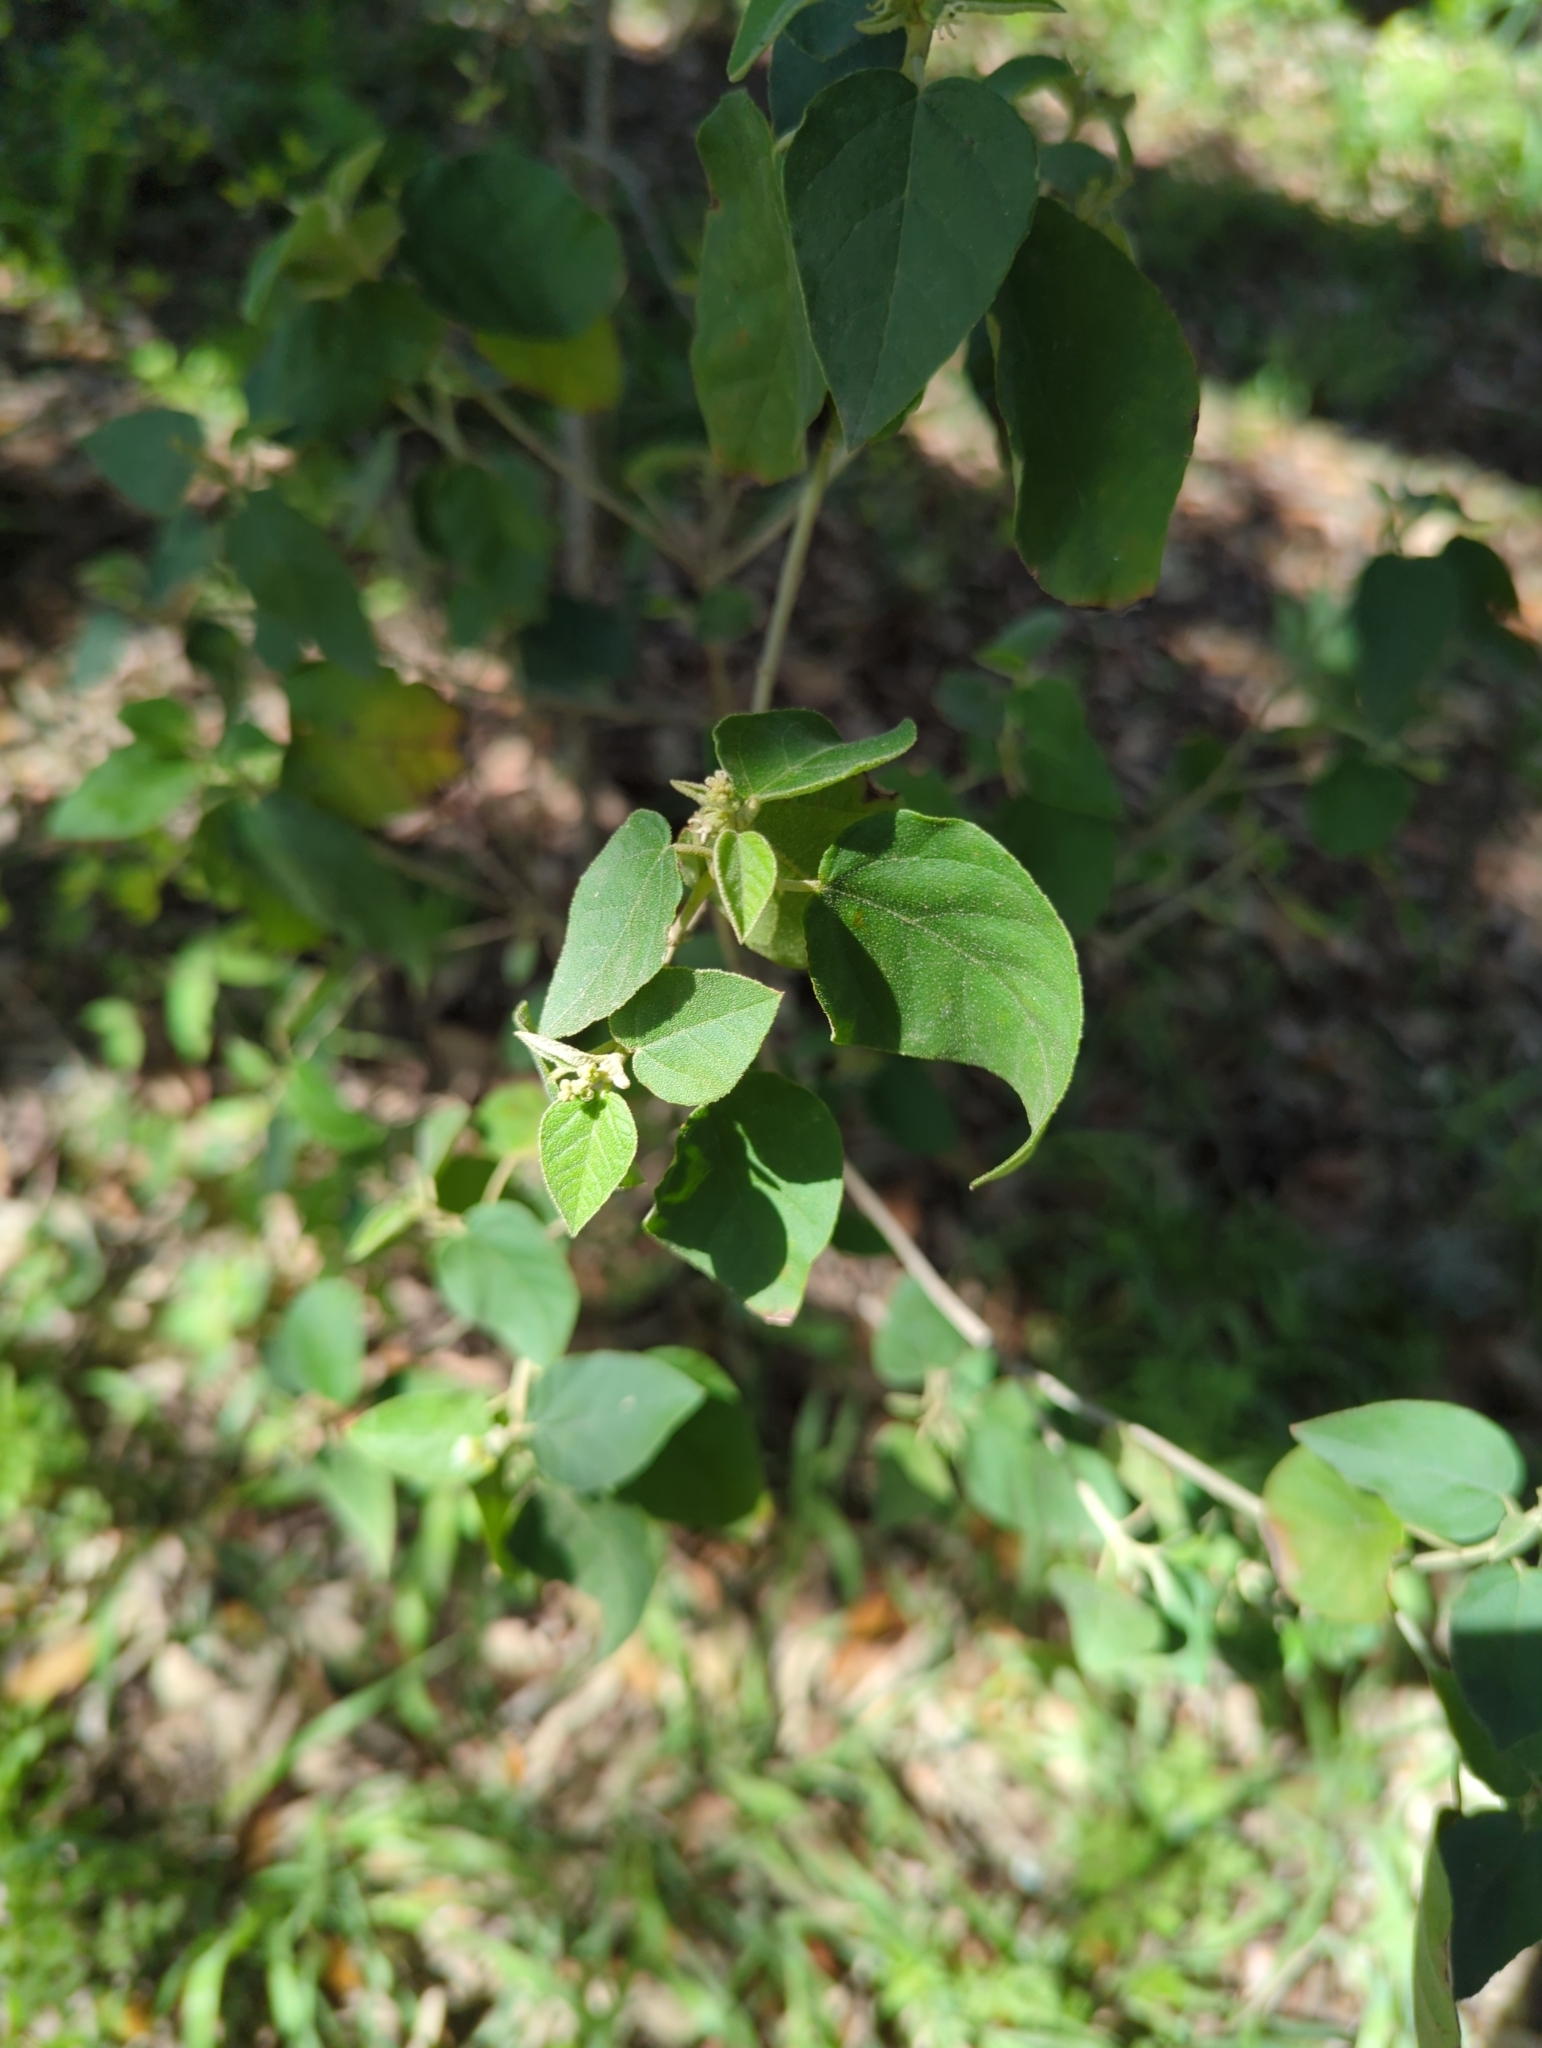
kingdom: Plantae
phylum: Tracheophyta
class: Magnoliopsida
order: Malpighiales
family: Euphorbiaceae
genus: Croton
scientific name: Croton fruticulosus
